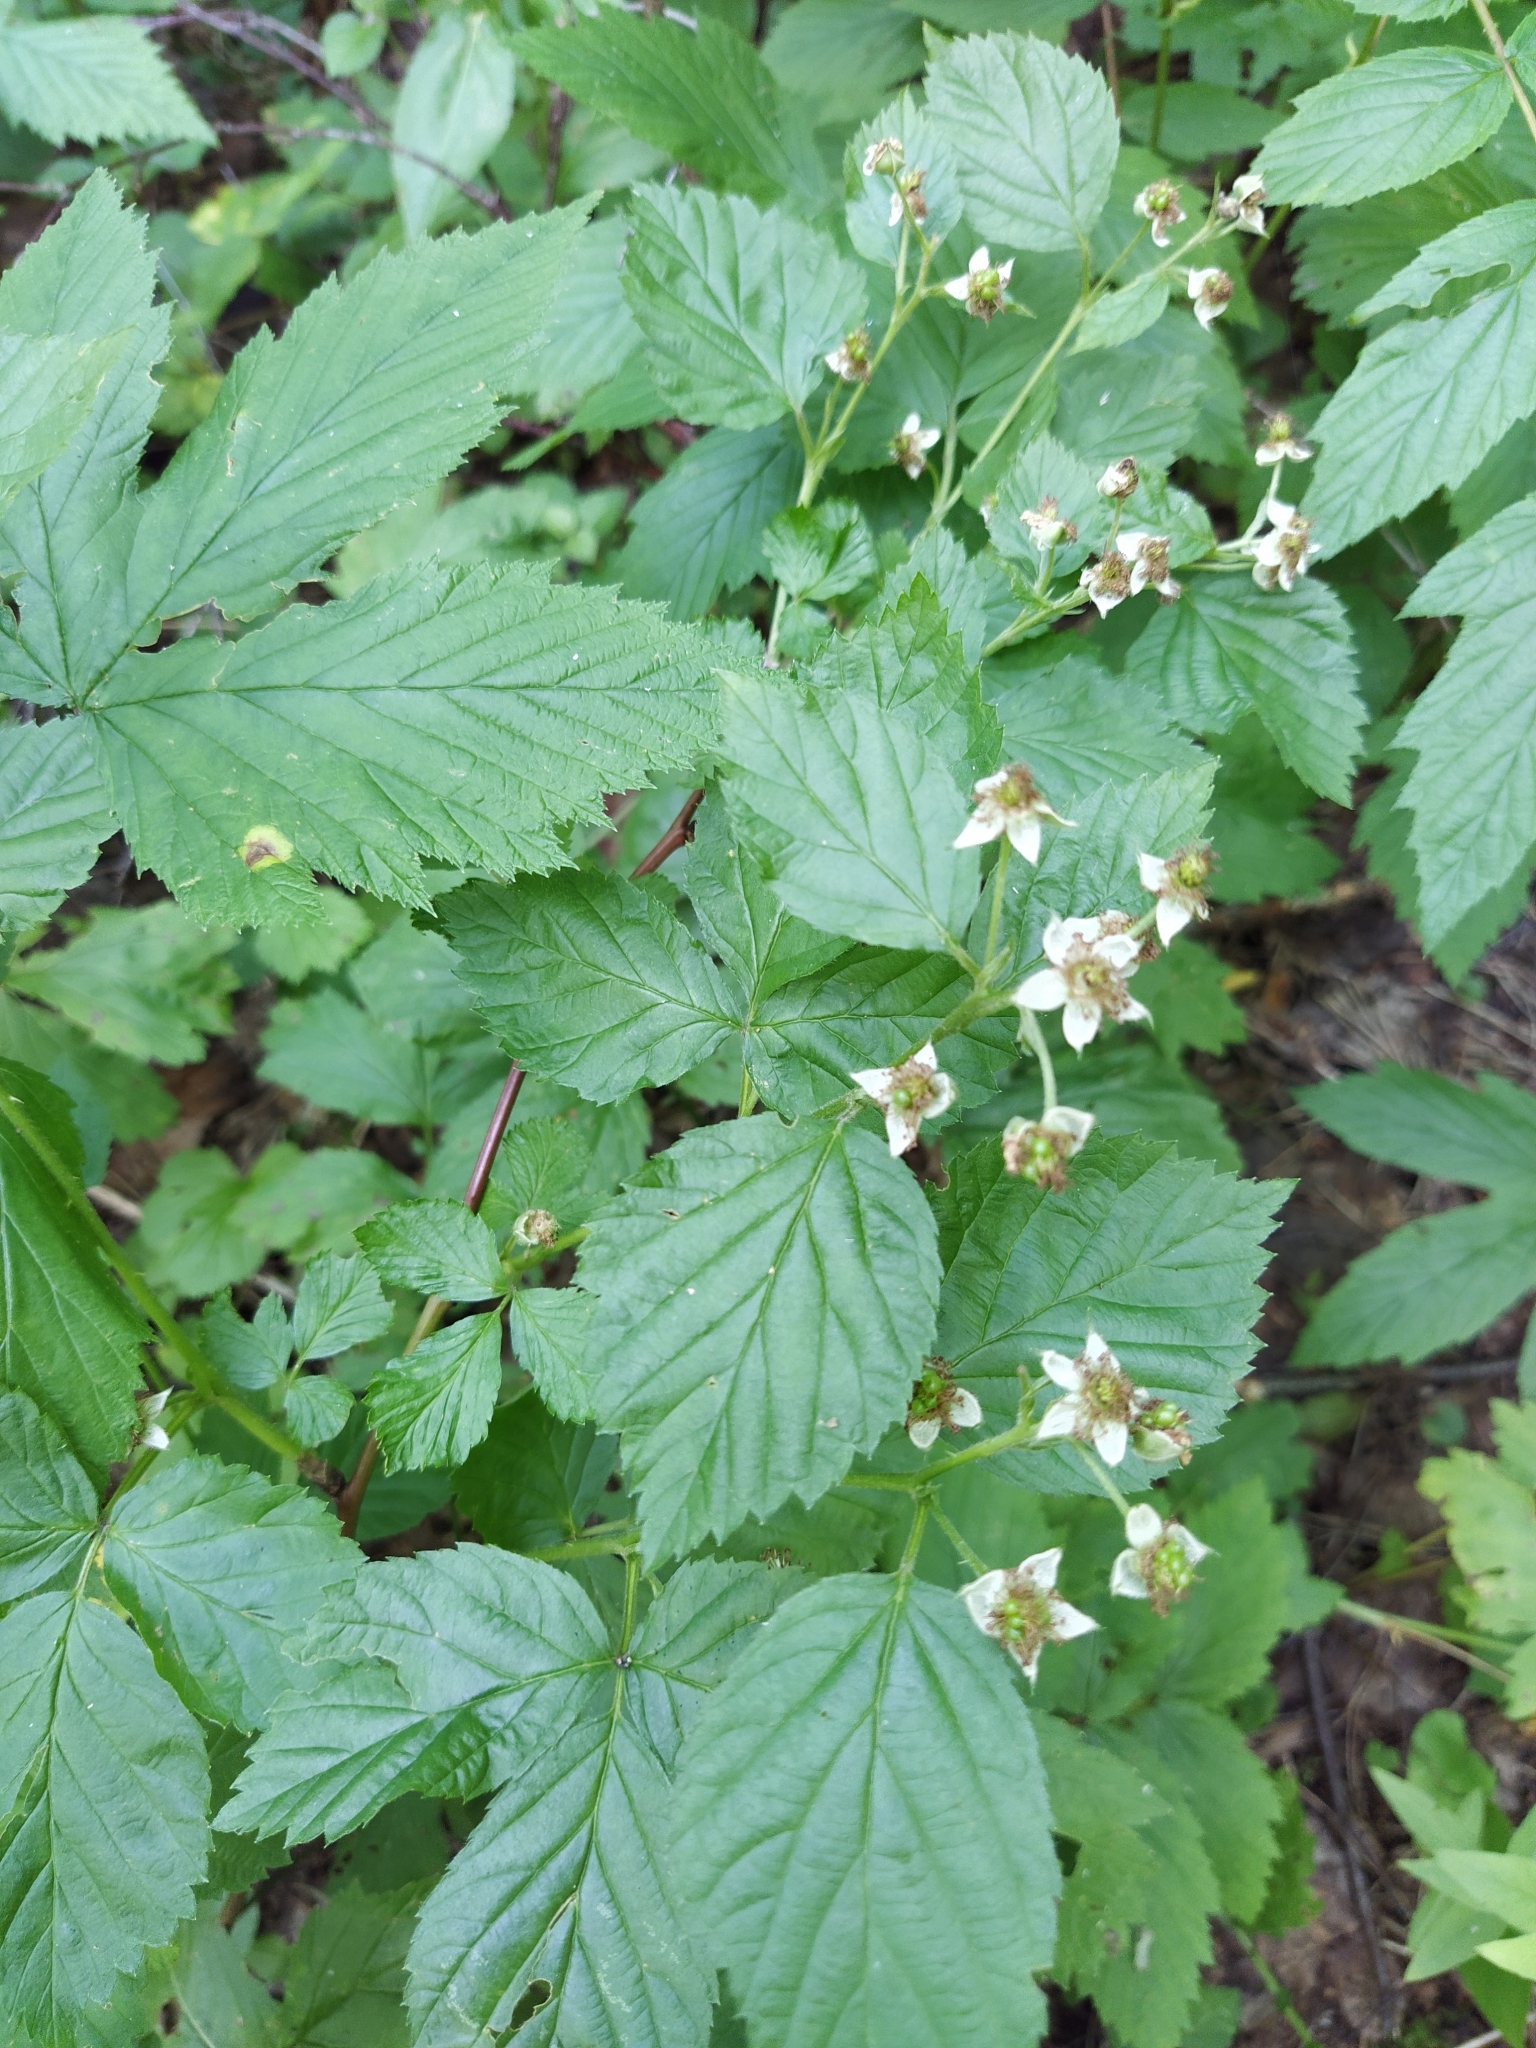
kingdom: Plantae
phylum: Tracheophyta
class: Magnoliopsida
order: Rosales
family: Rosaceae
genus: Rubus
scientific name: Rubus polonicus
